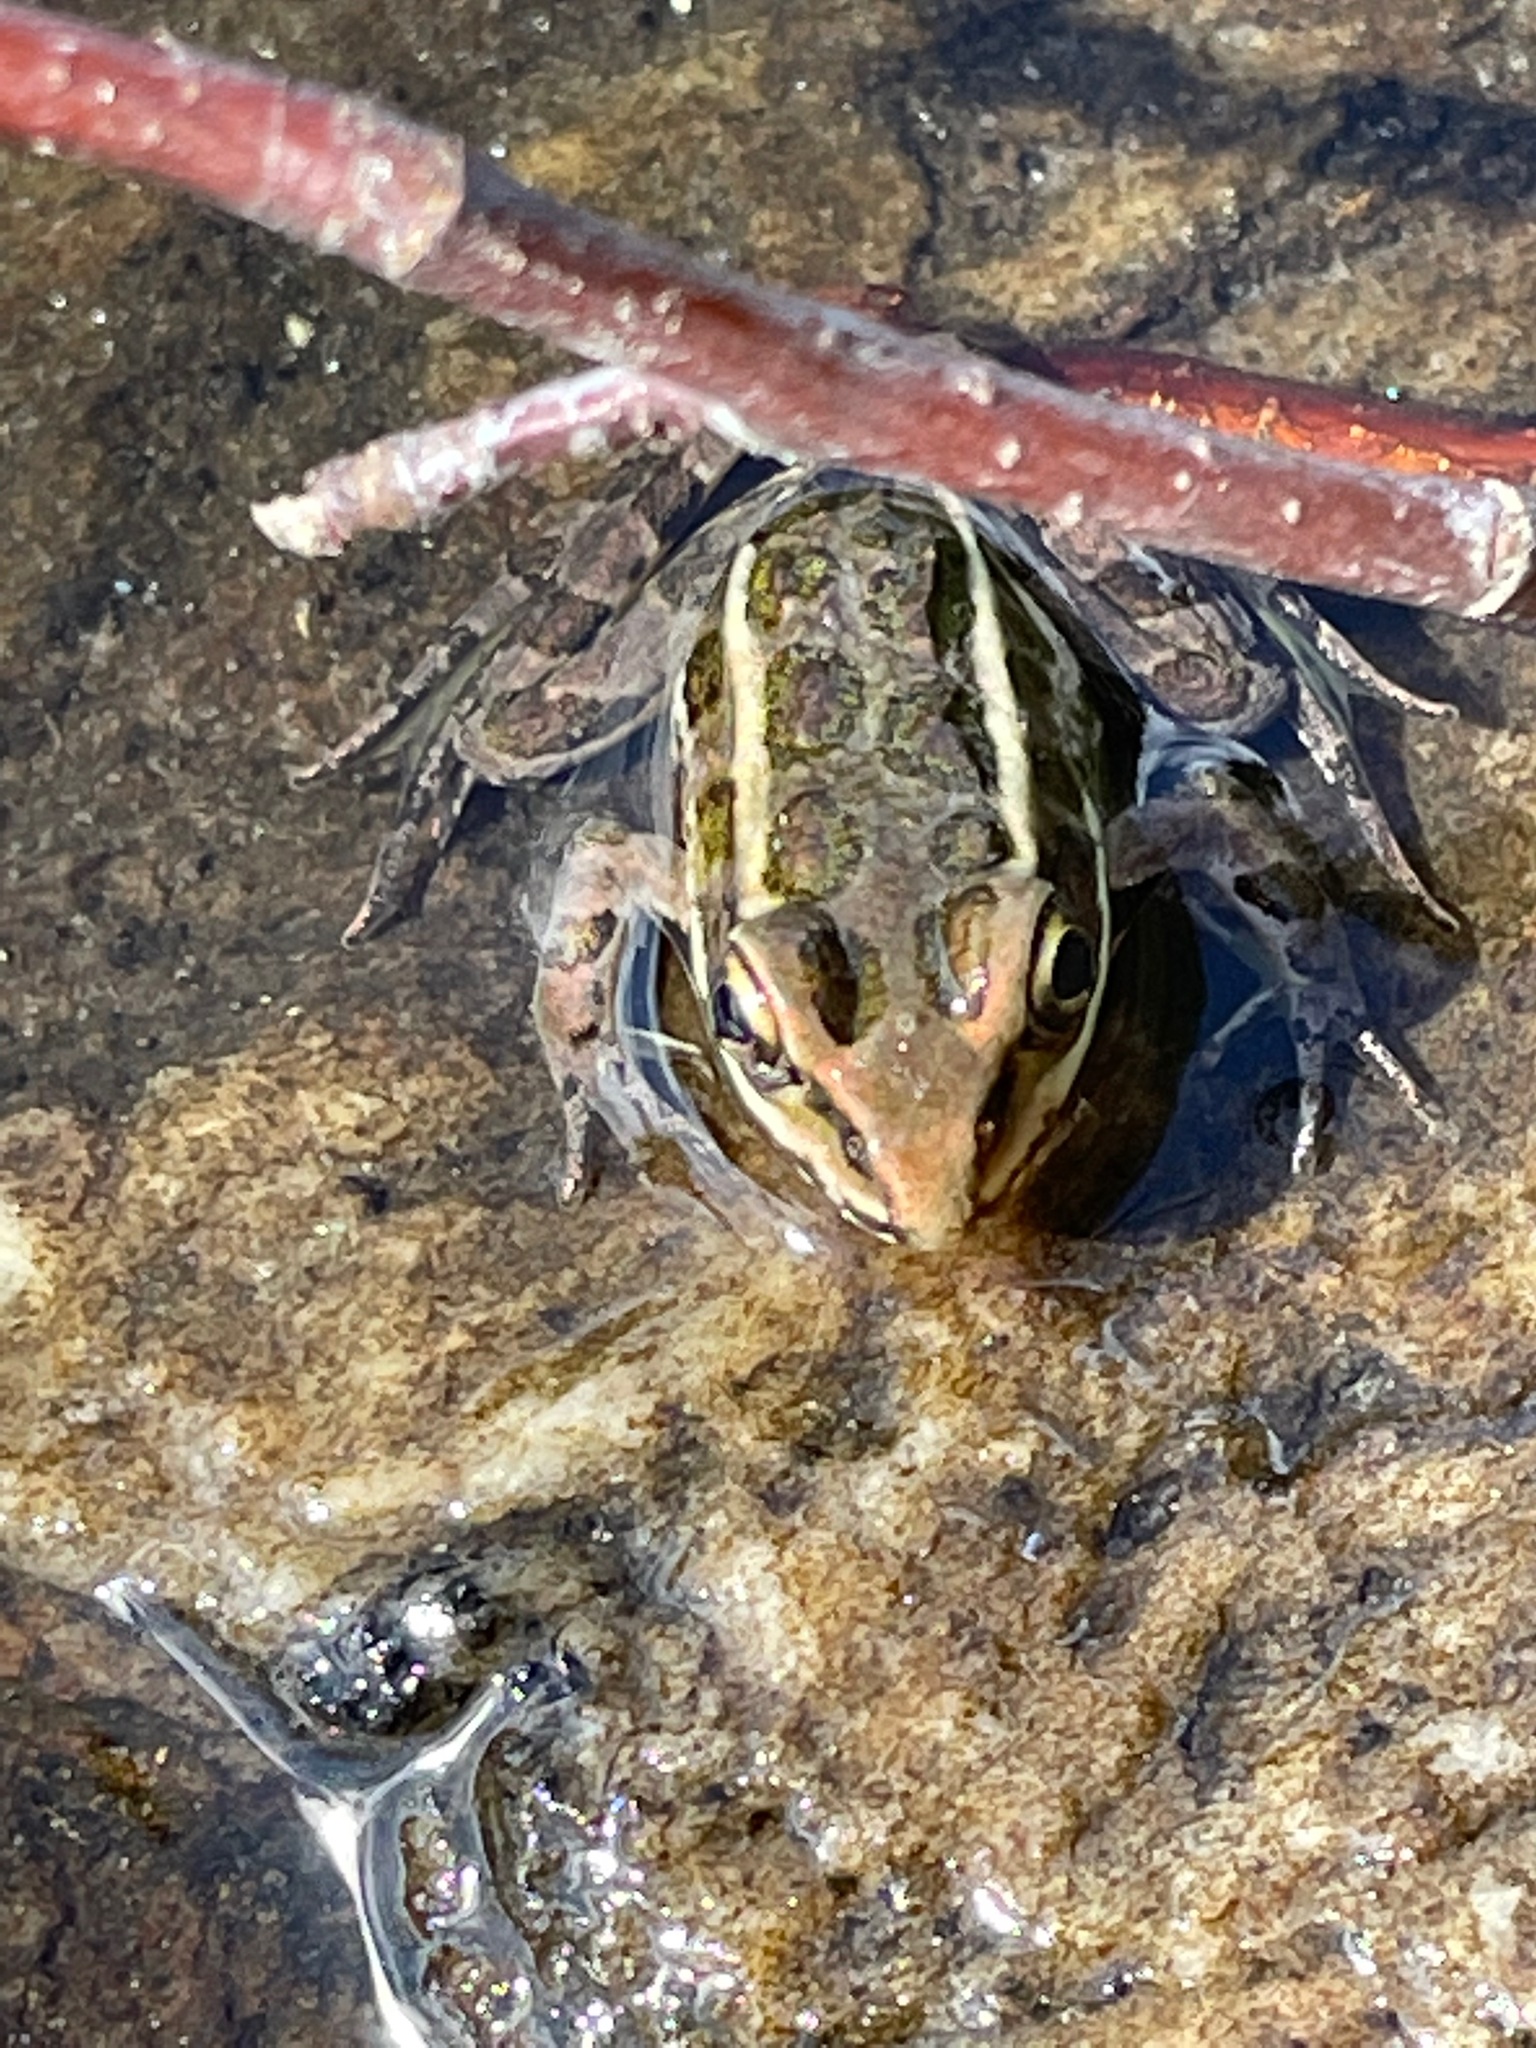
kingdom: Animalia
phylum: Chordata
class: Amphibia
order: Anura
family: Ranidae
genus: Lithobates
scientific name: Lithobates palustris
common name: Pickerel frog
